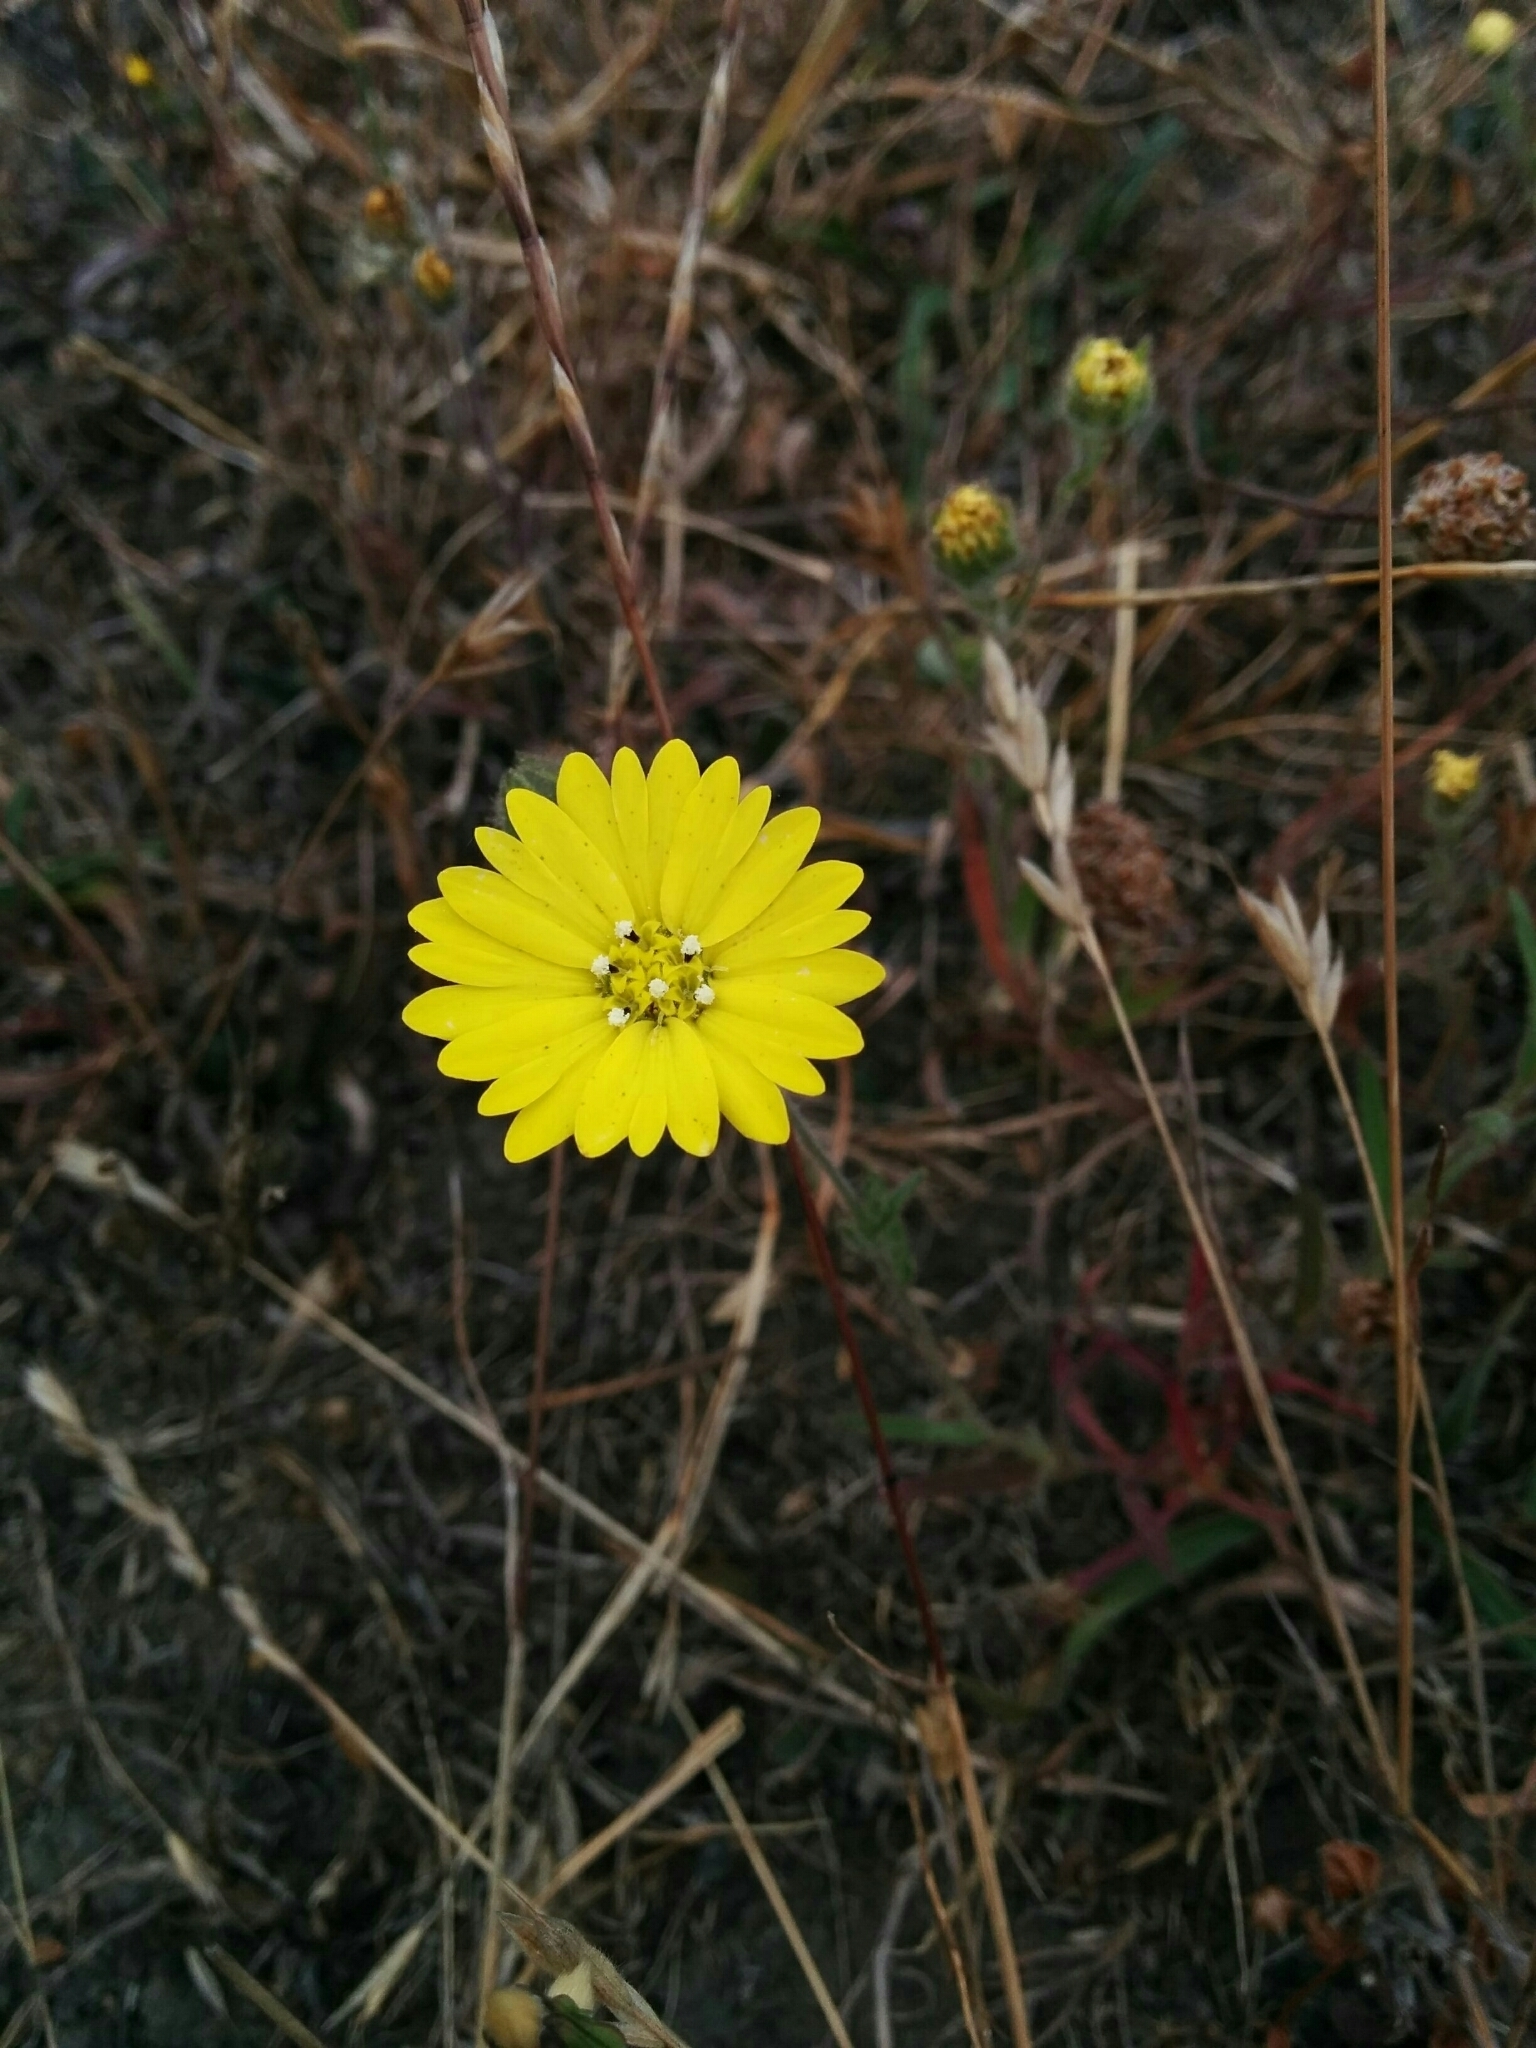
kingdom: Plantae
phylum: Tracheophyta
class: Magnoliopsida
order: Asterales
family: Asteraceae
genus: Hemizonia
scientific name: Hemizonia congesta
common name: Hayfield tarweed
